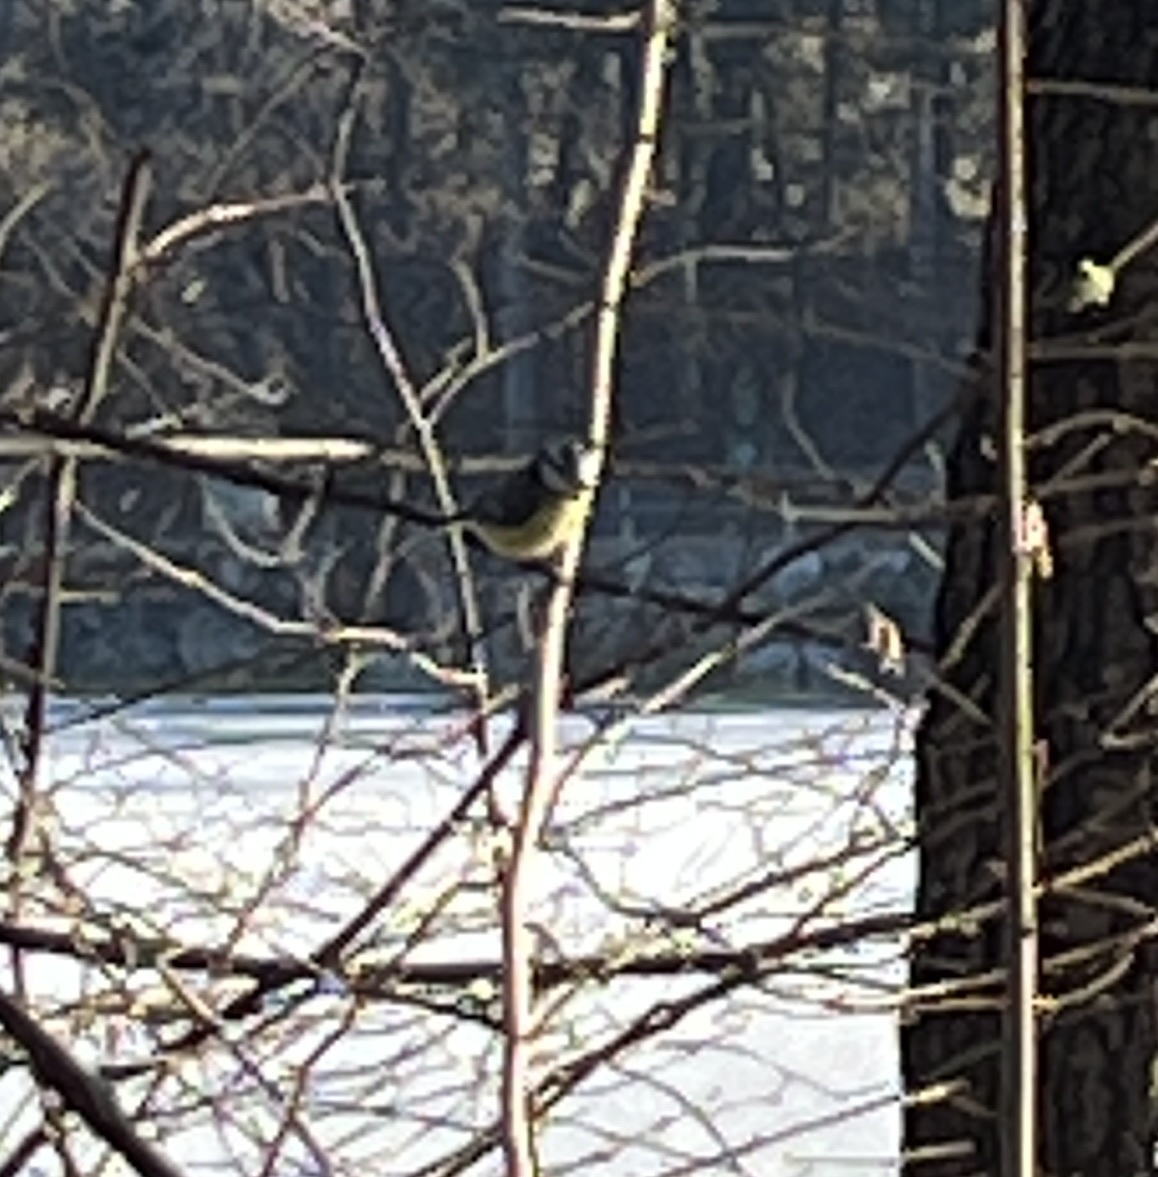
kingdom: Animalia
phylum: Chordata
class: Aves
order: Passeriformes
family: Paridae
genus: Cyanistes
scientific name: Cyanistes caeruleus
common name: Eurasian blue tit
